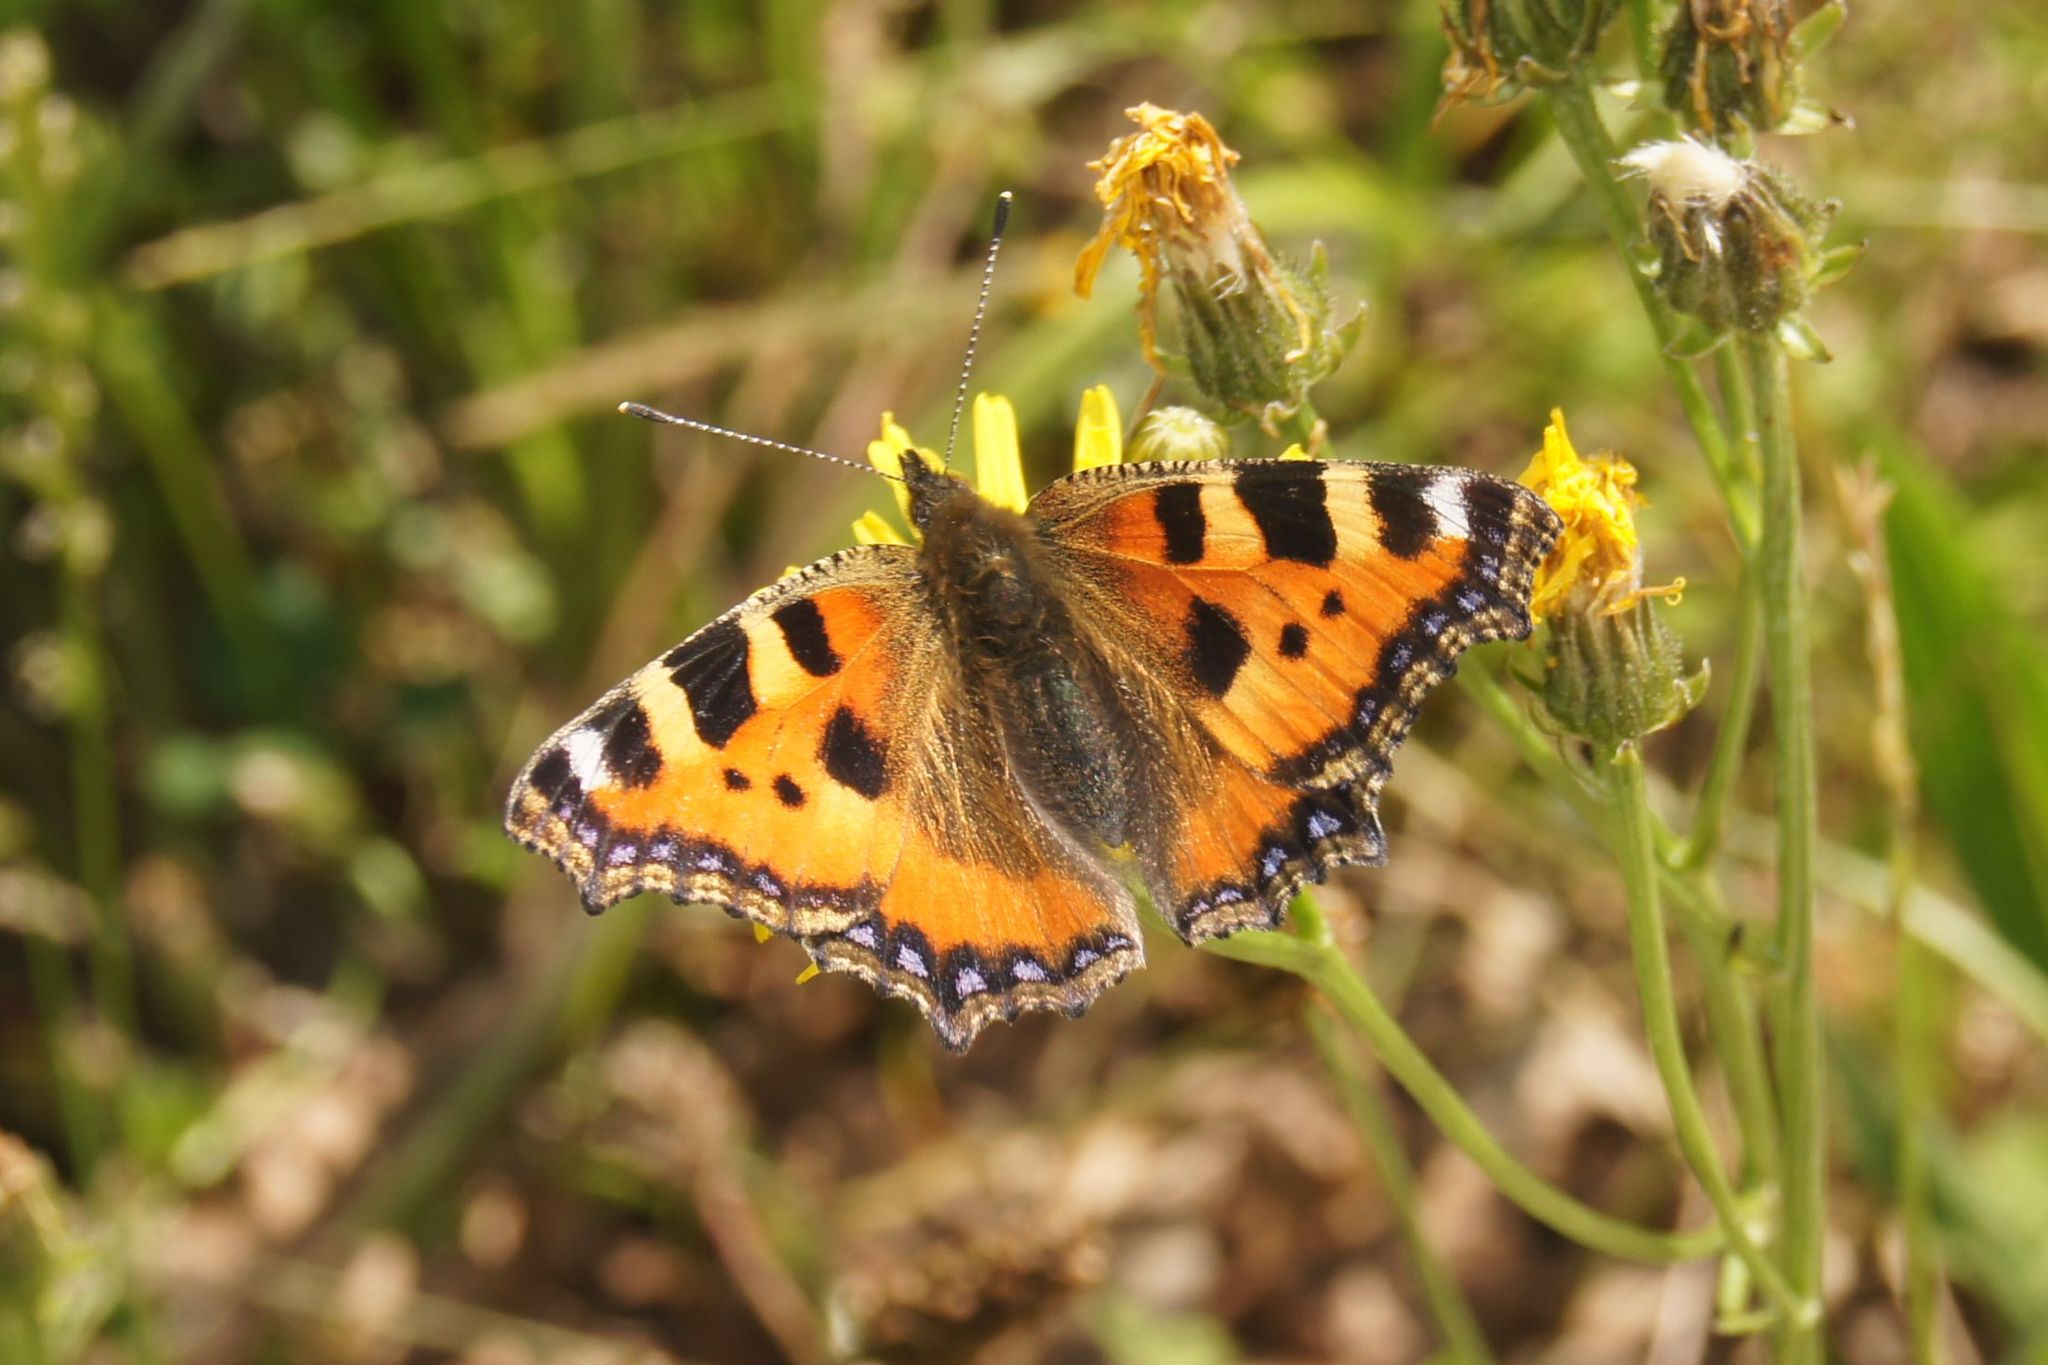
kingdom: Animalia
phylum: Arthropoda
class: Insecta
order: Lepidoptera
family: Nymphalidae
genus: Aglais
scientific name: Aglais urticae
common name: Small tortoiseshell
